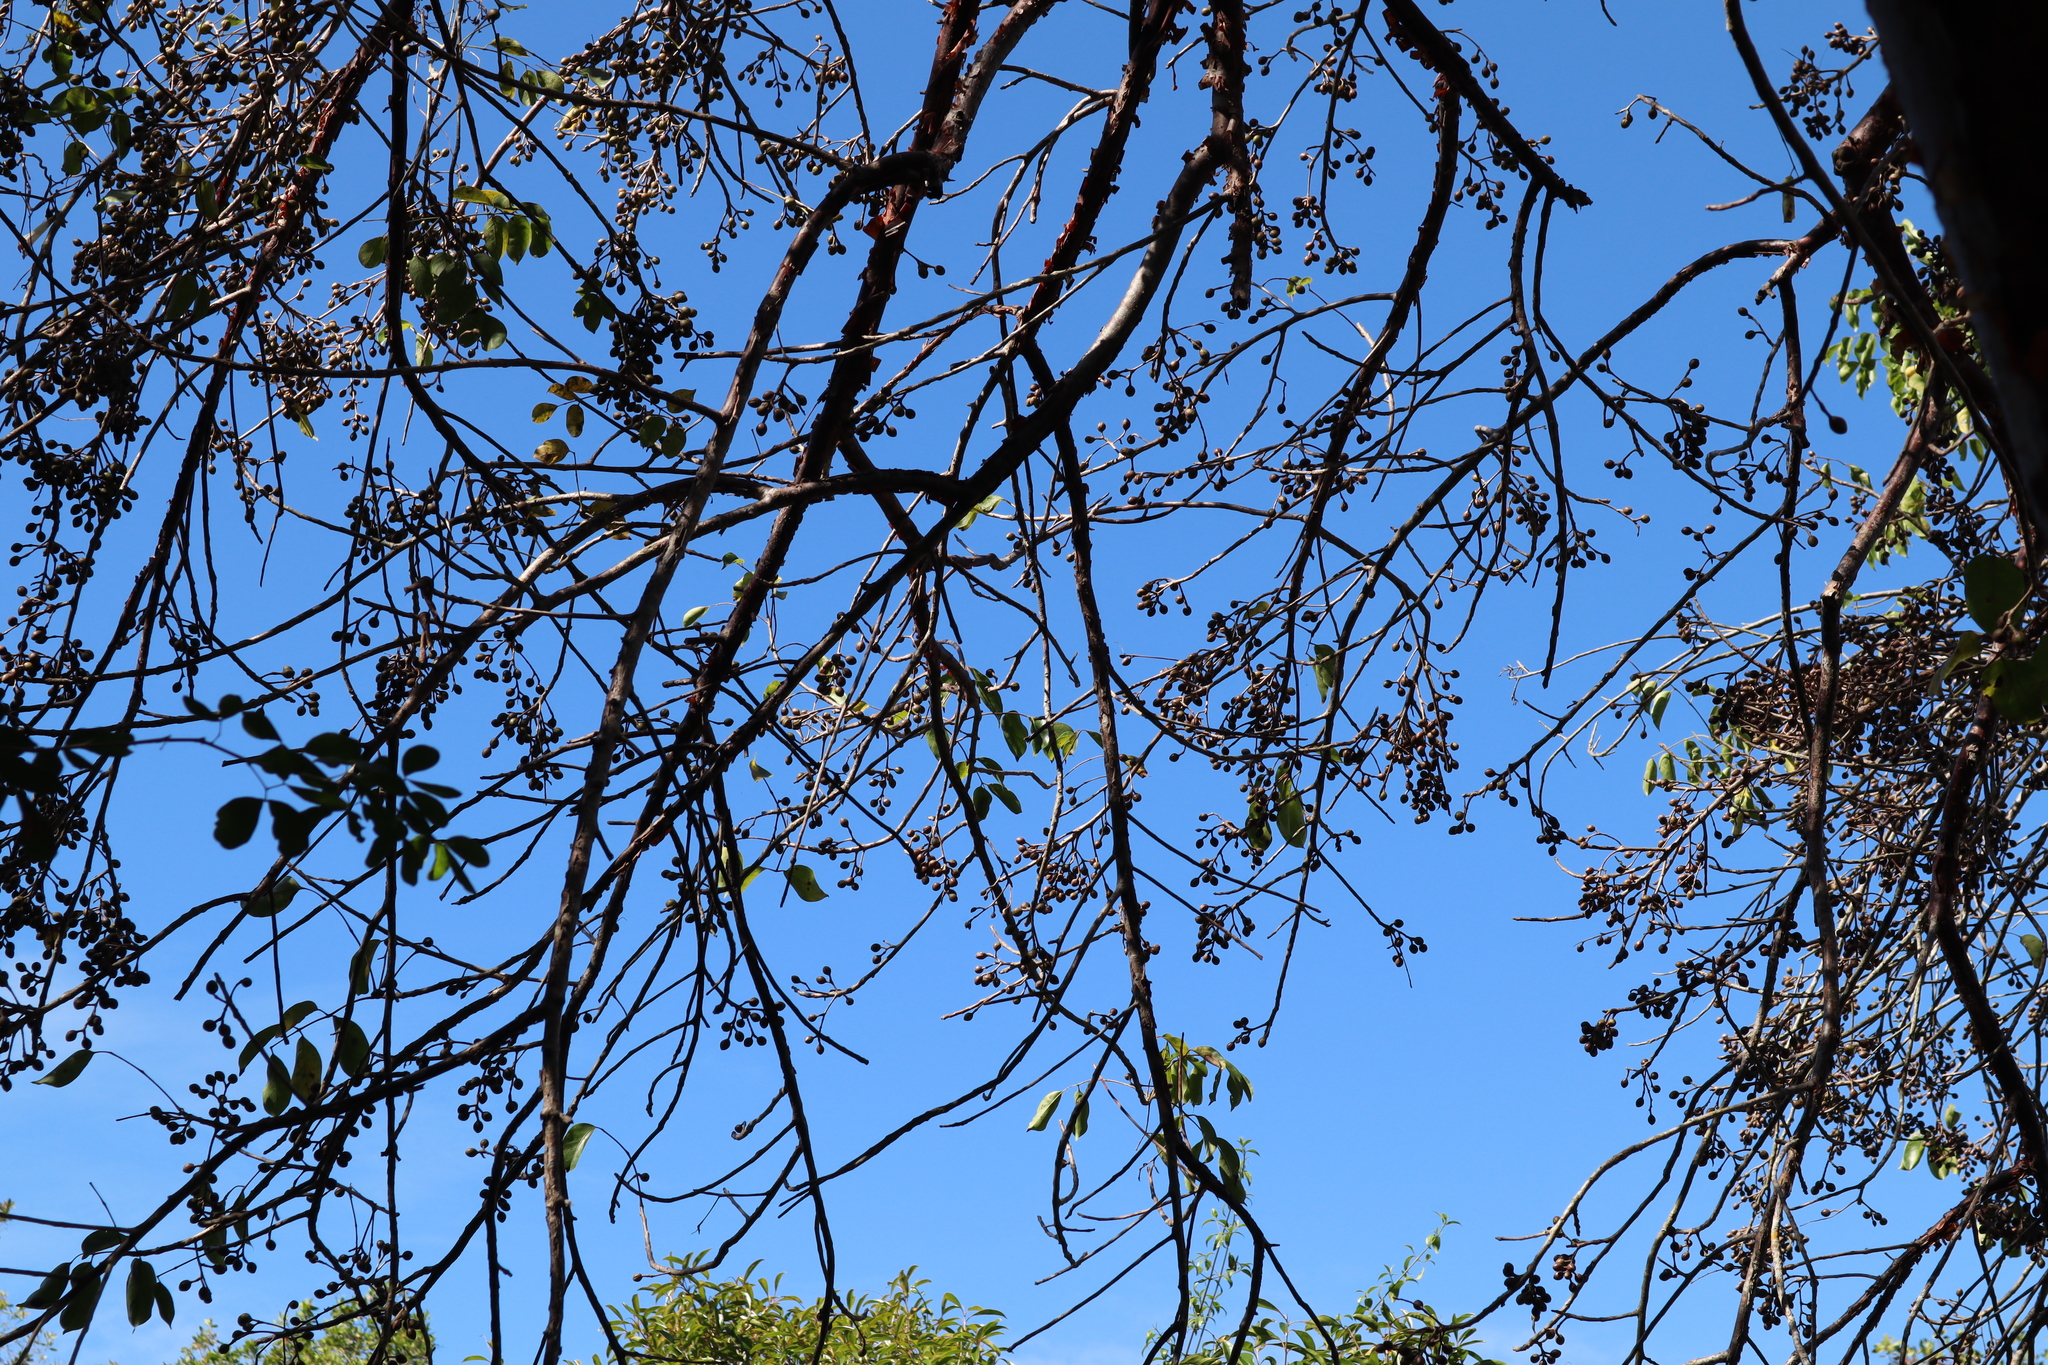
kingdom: Plantae
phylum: Tracheophyta
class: Magnoliopsida
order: Sapindales
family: Burseraceae
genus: Bursera
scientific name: Bursera simaruba
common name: Turpentine tree
